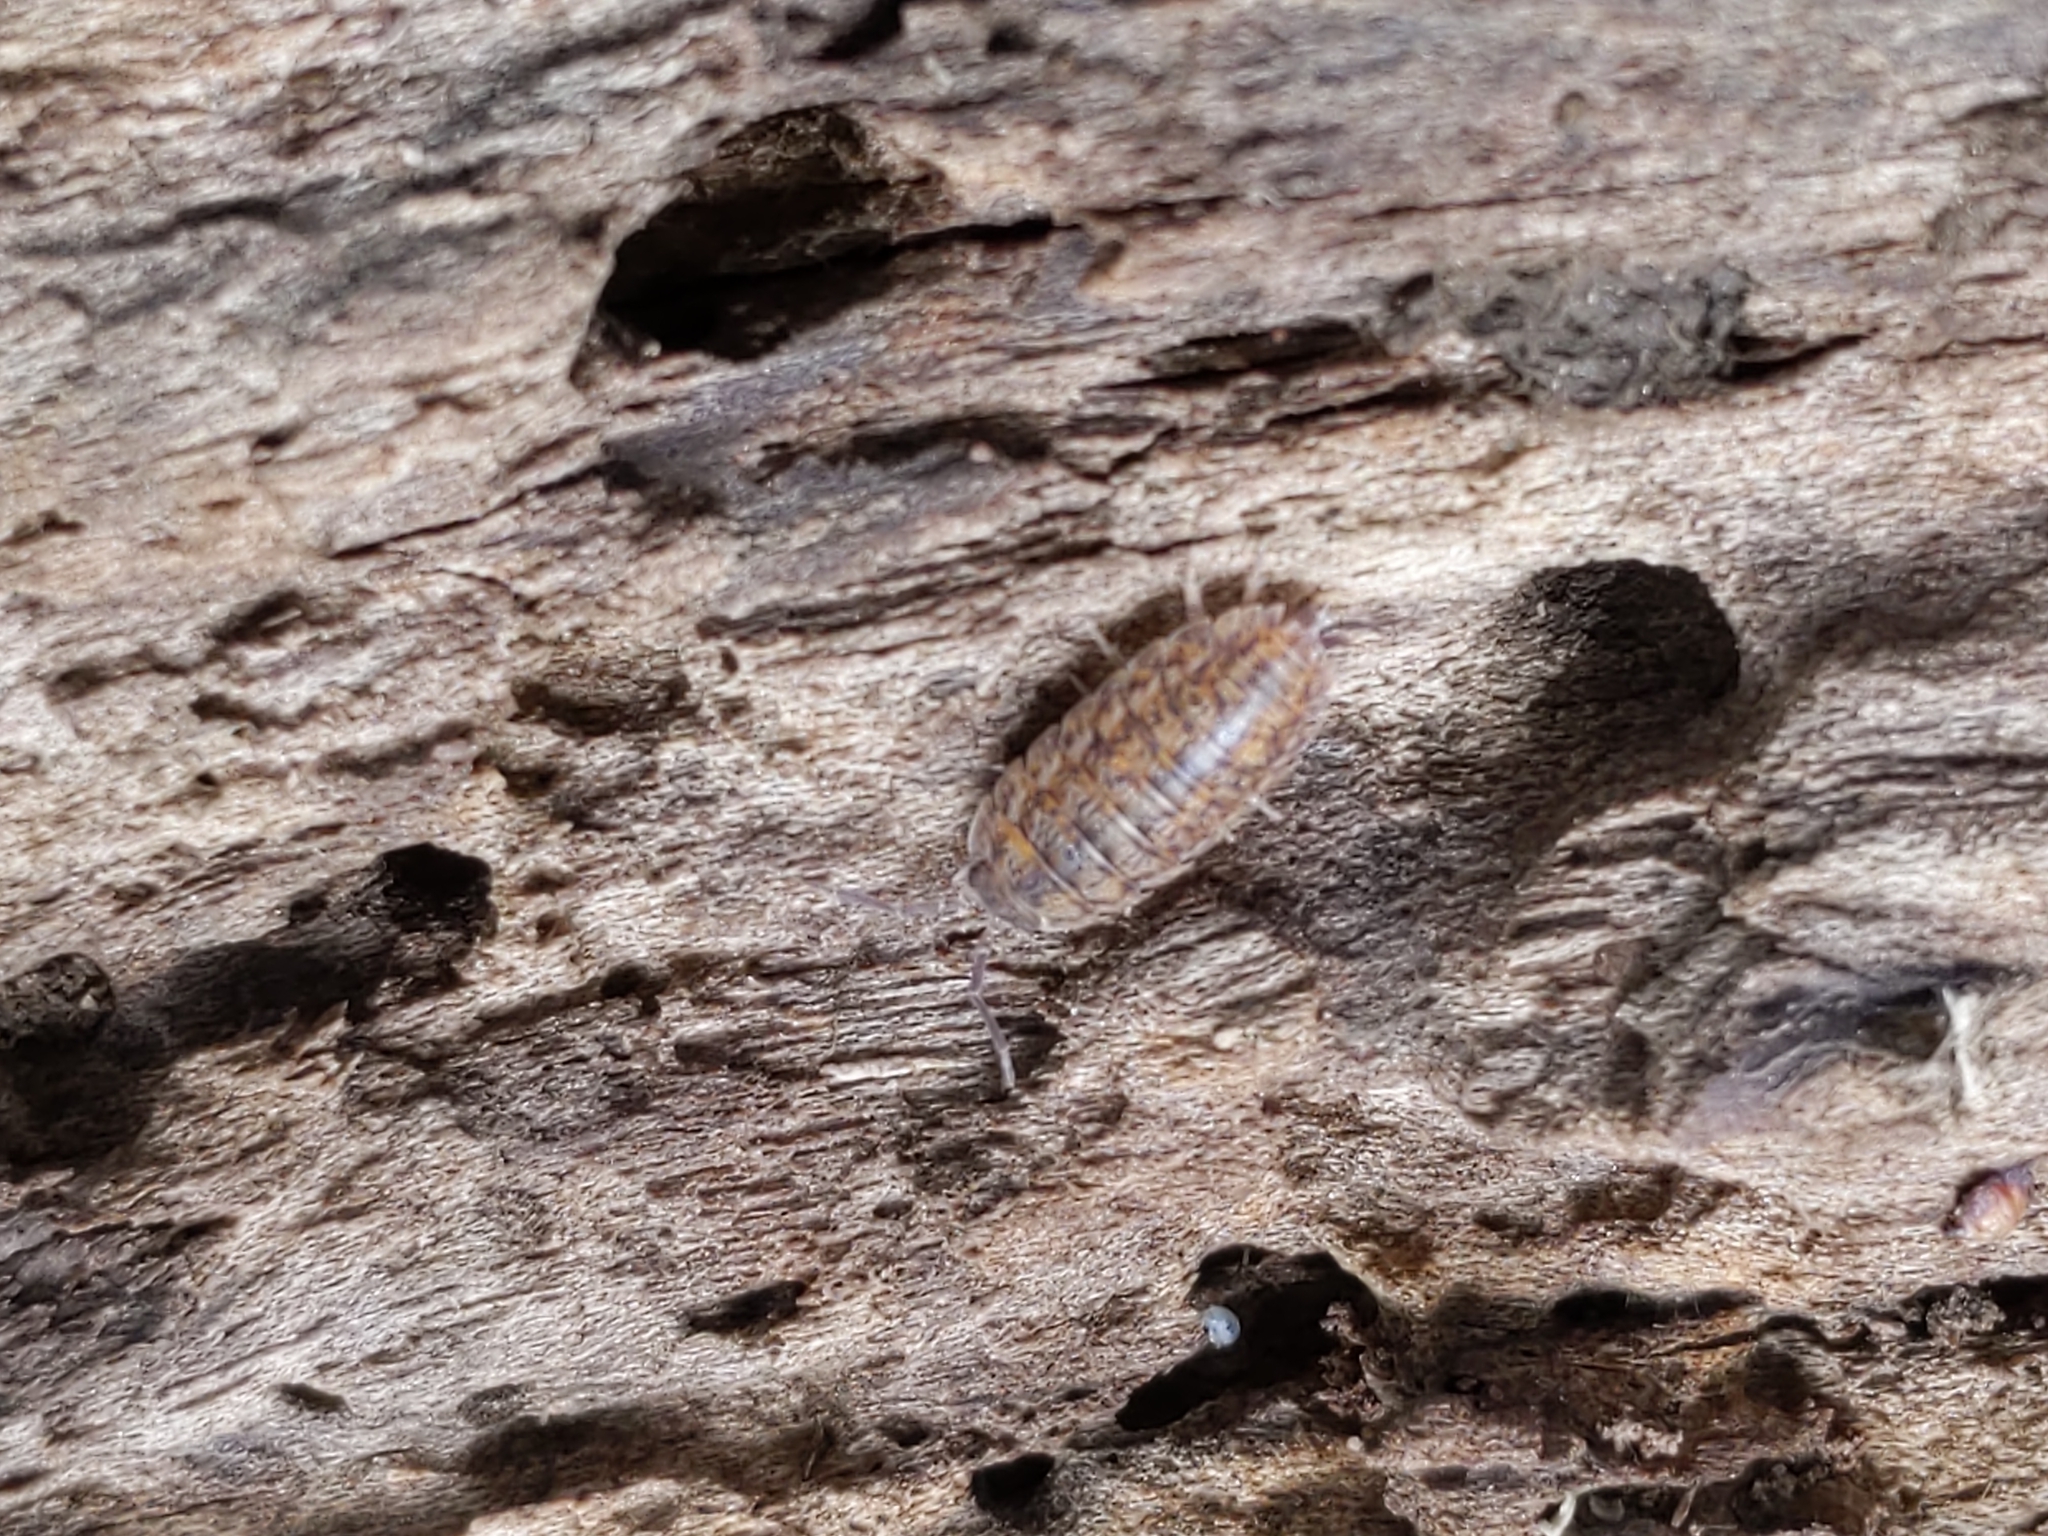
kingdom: Animalia
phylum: Arthropoda
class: Malacostraca
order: Isopoda
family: Trachelipodidae
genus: Trachelipus
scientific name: Trachelipus rathkii
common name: Isopod
